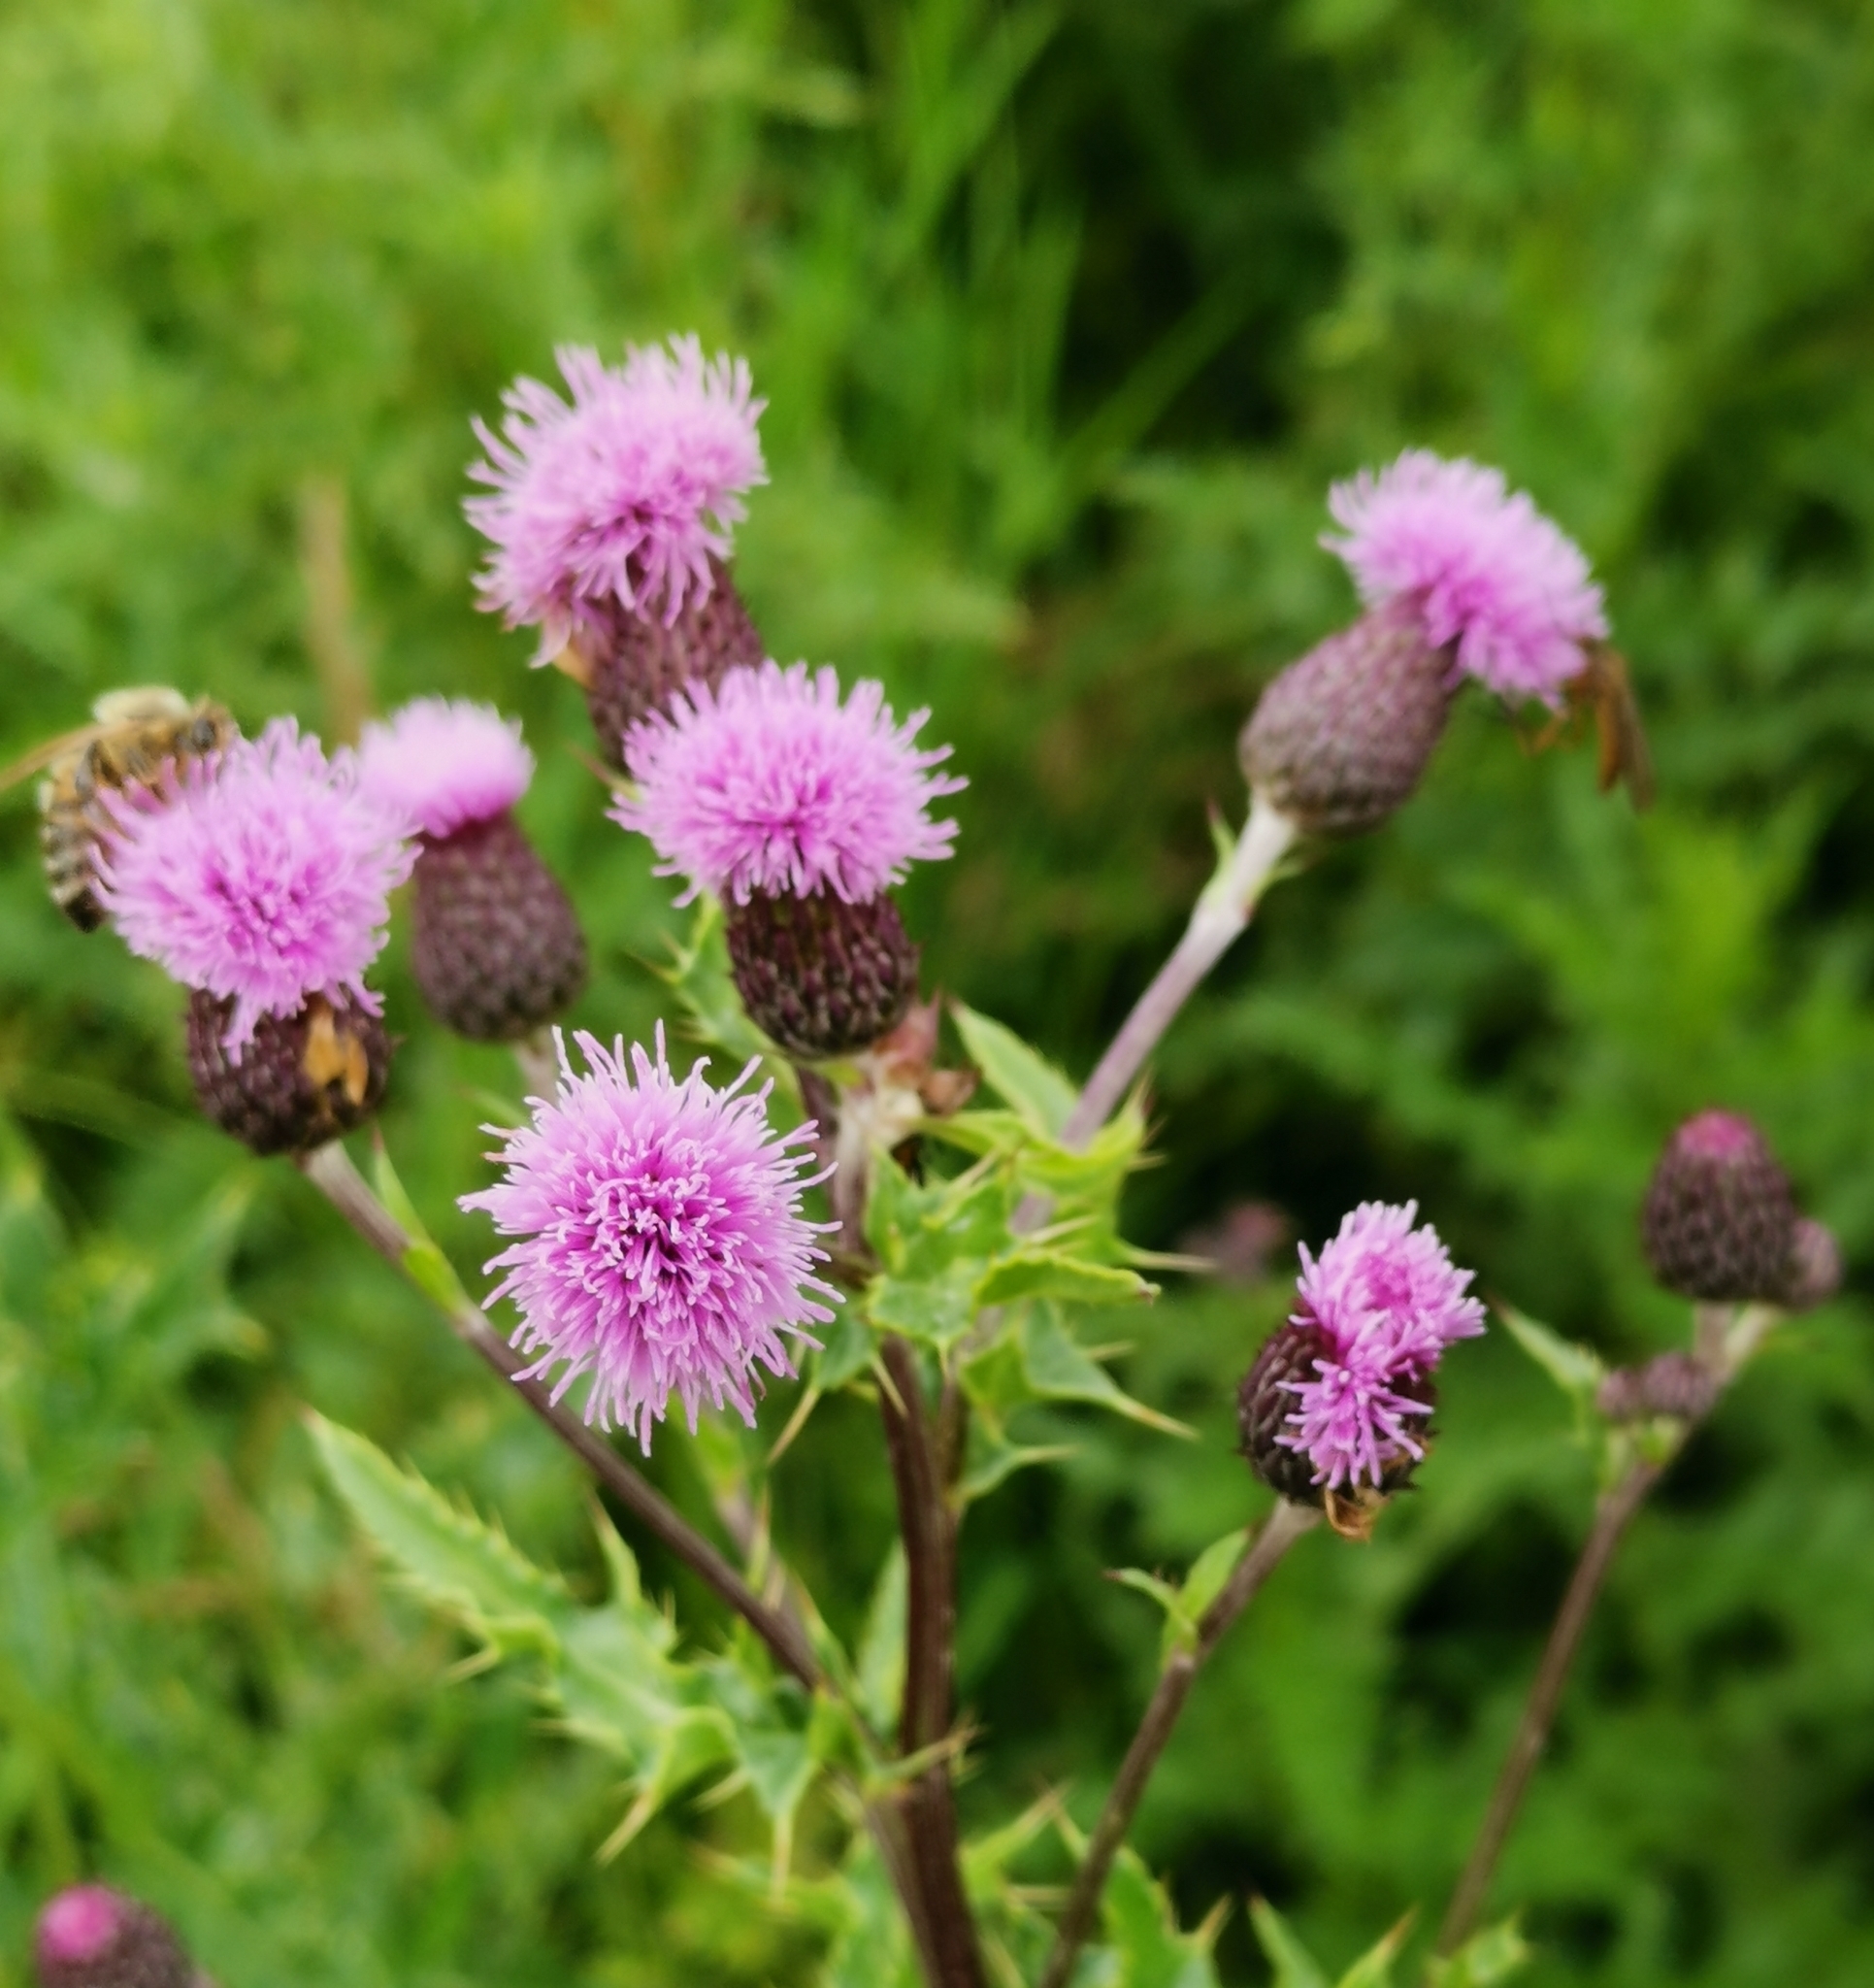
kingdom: Plantae
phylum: Tracheophyta
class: Magnoliopsida
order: Asterales
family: Asteraceae
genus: Cirsium
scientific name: Cirsium arvense
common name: Creeping thistle
